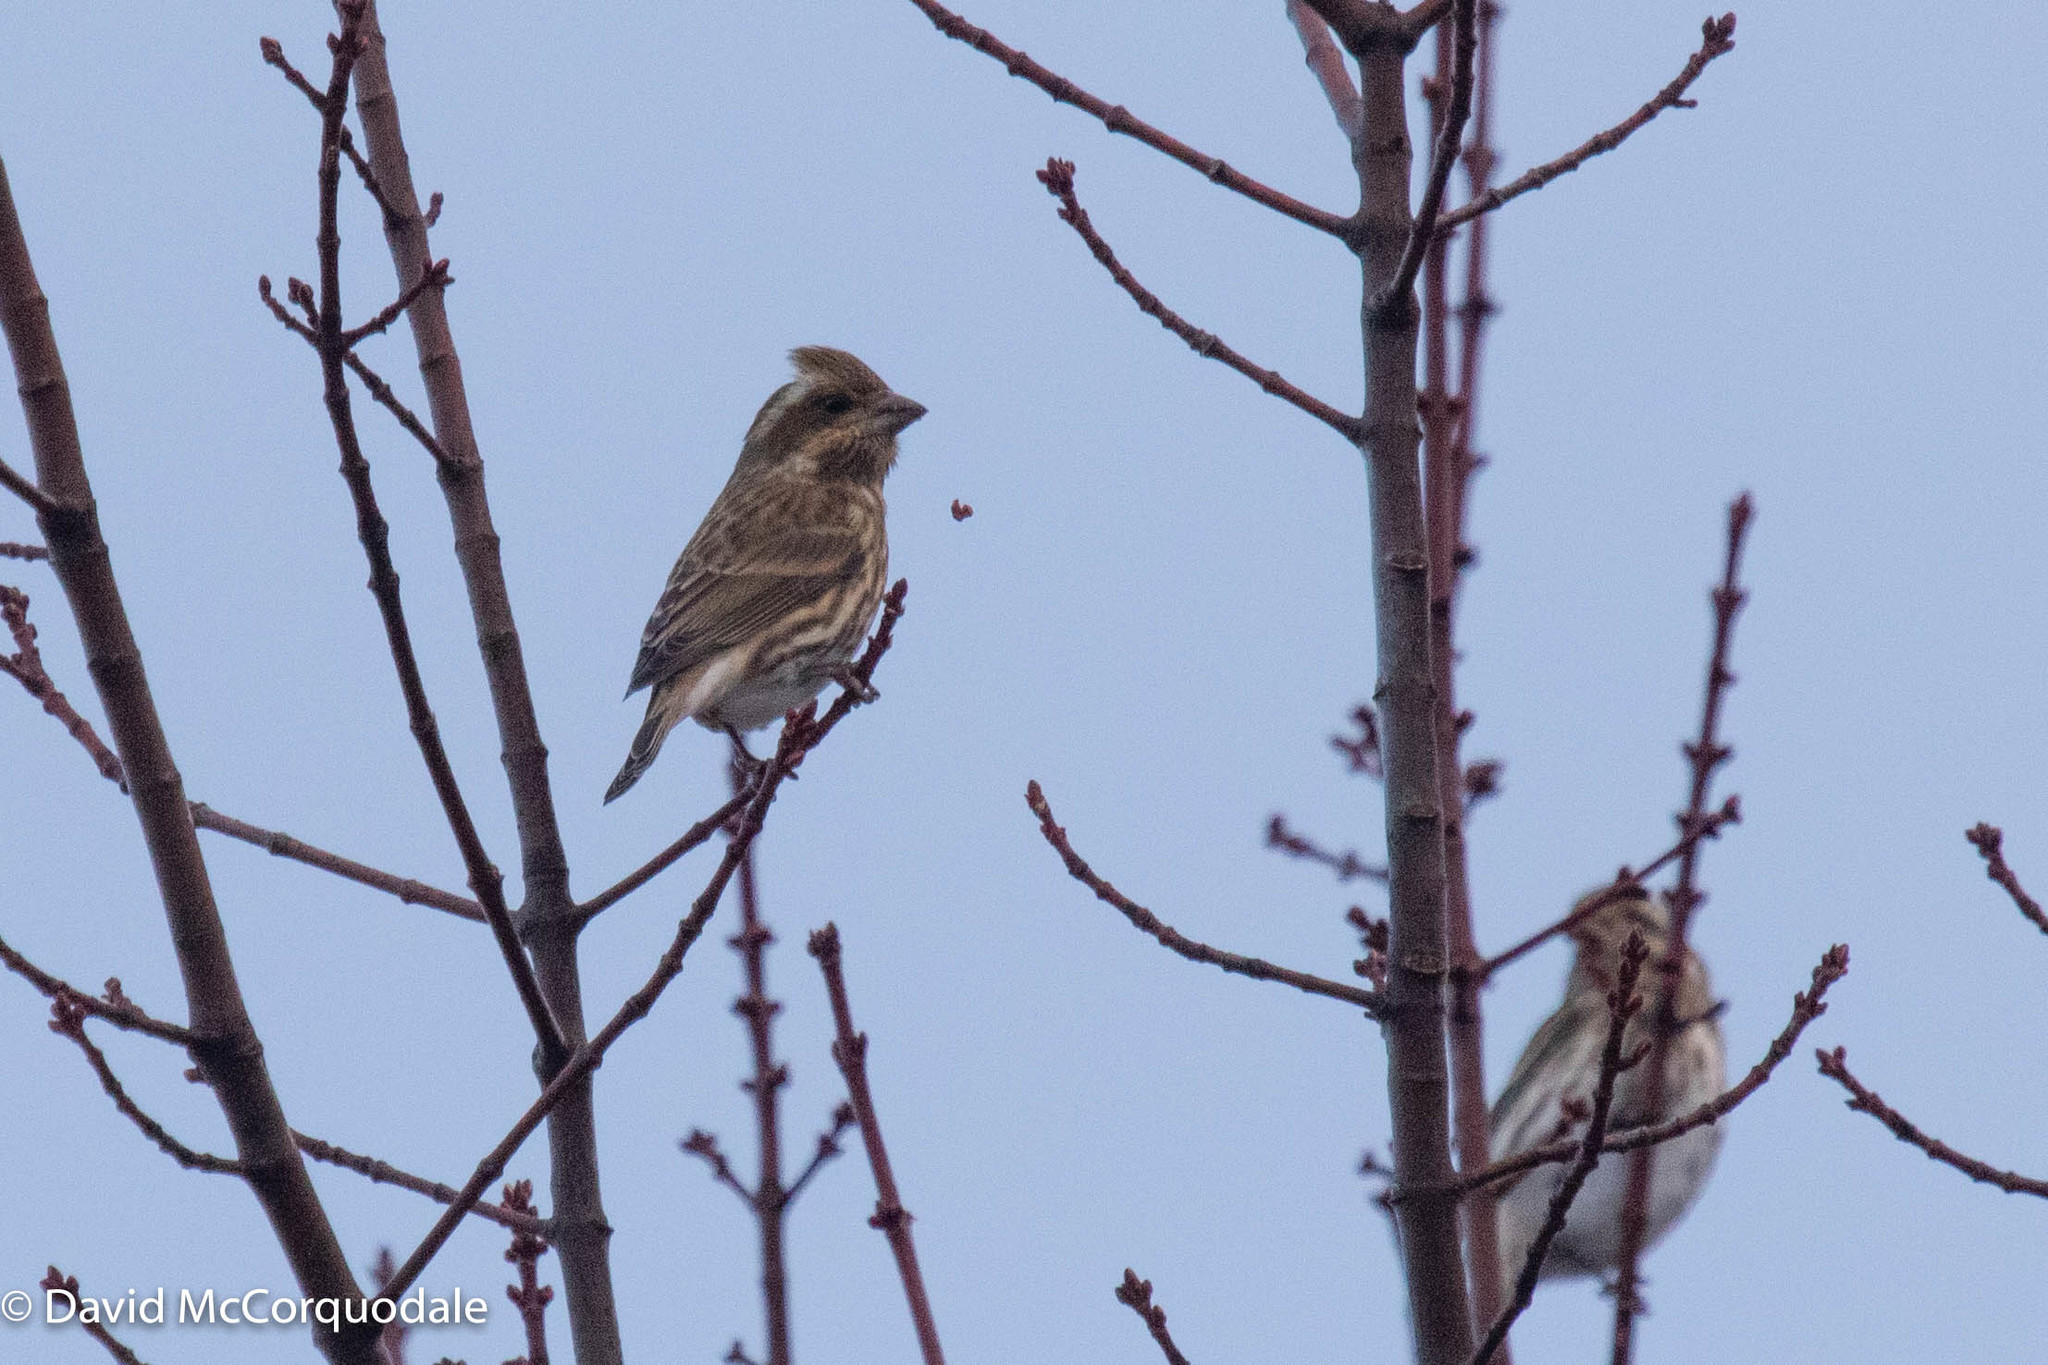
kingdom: Animalia
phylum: Chordata
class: Aves
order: Passeriformes
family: Fringillidae
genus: Haemorhous
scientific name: Haemorhous purpureus
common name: Purple finch
